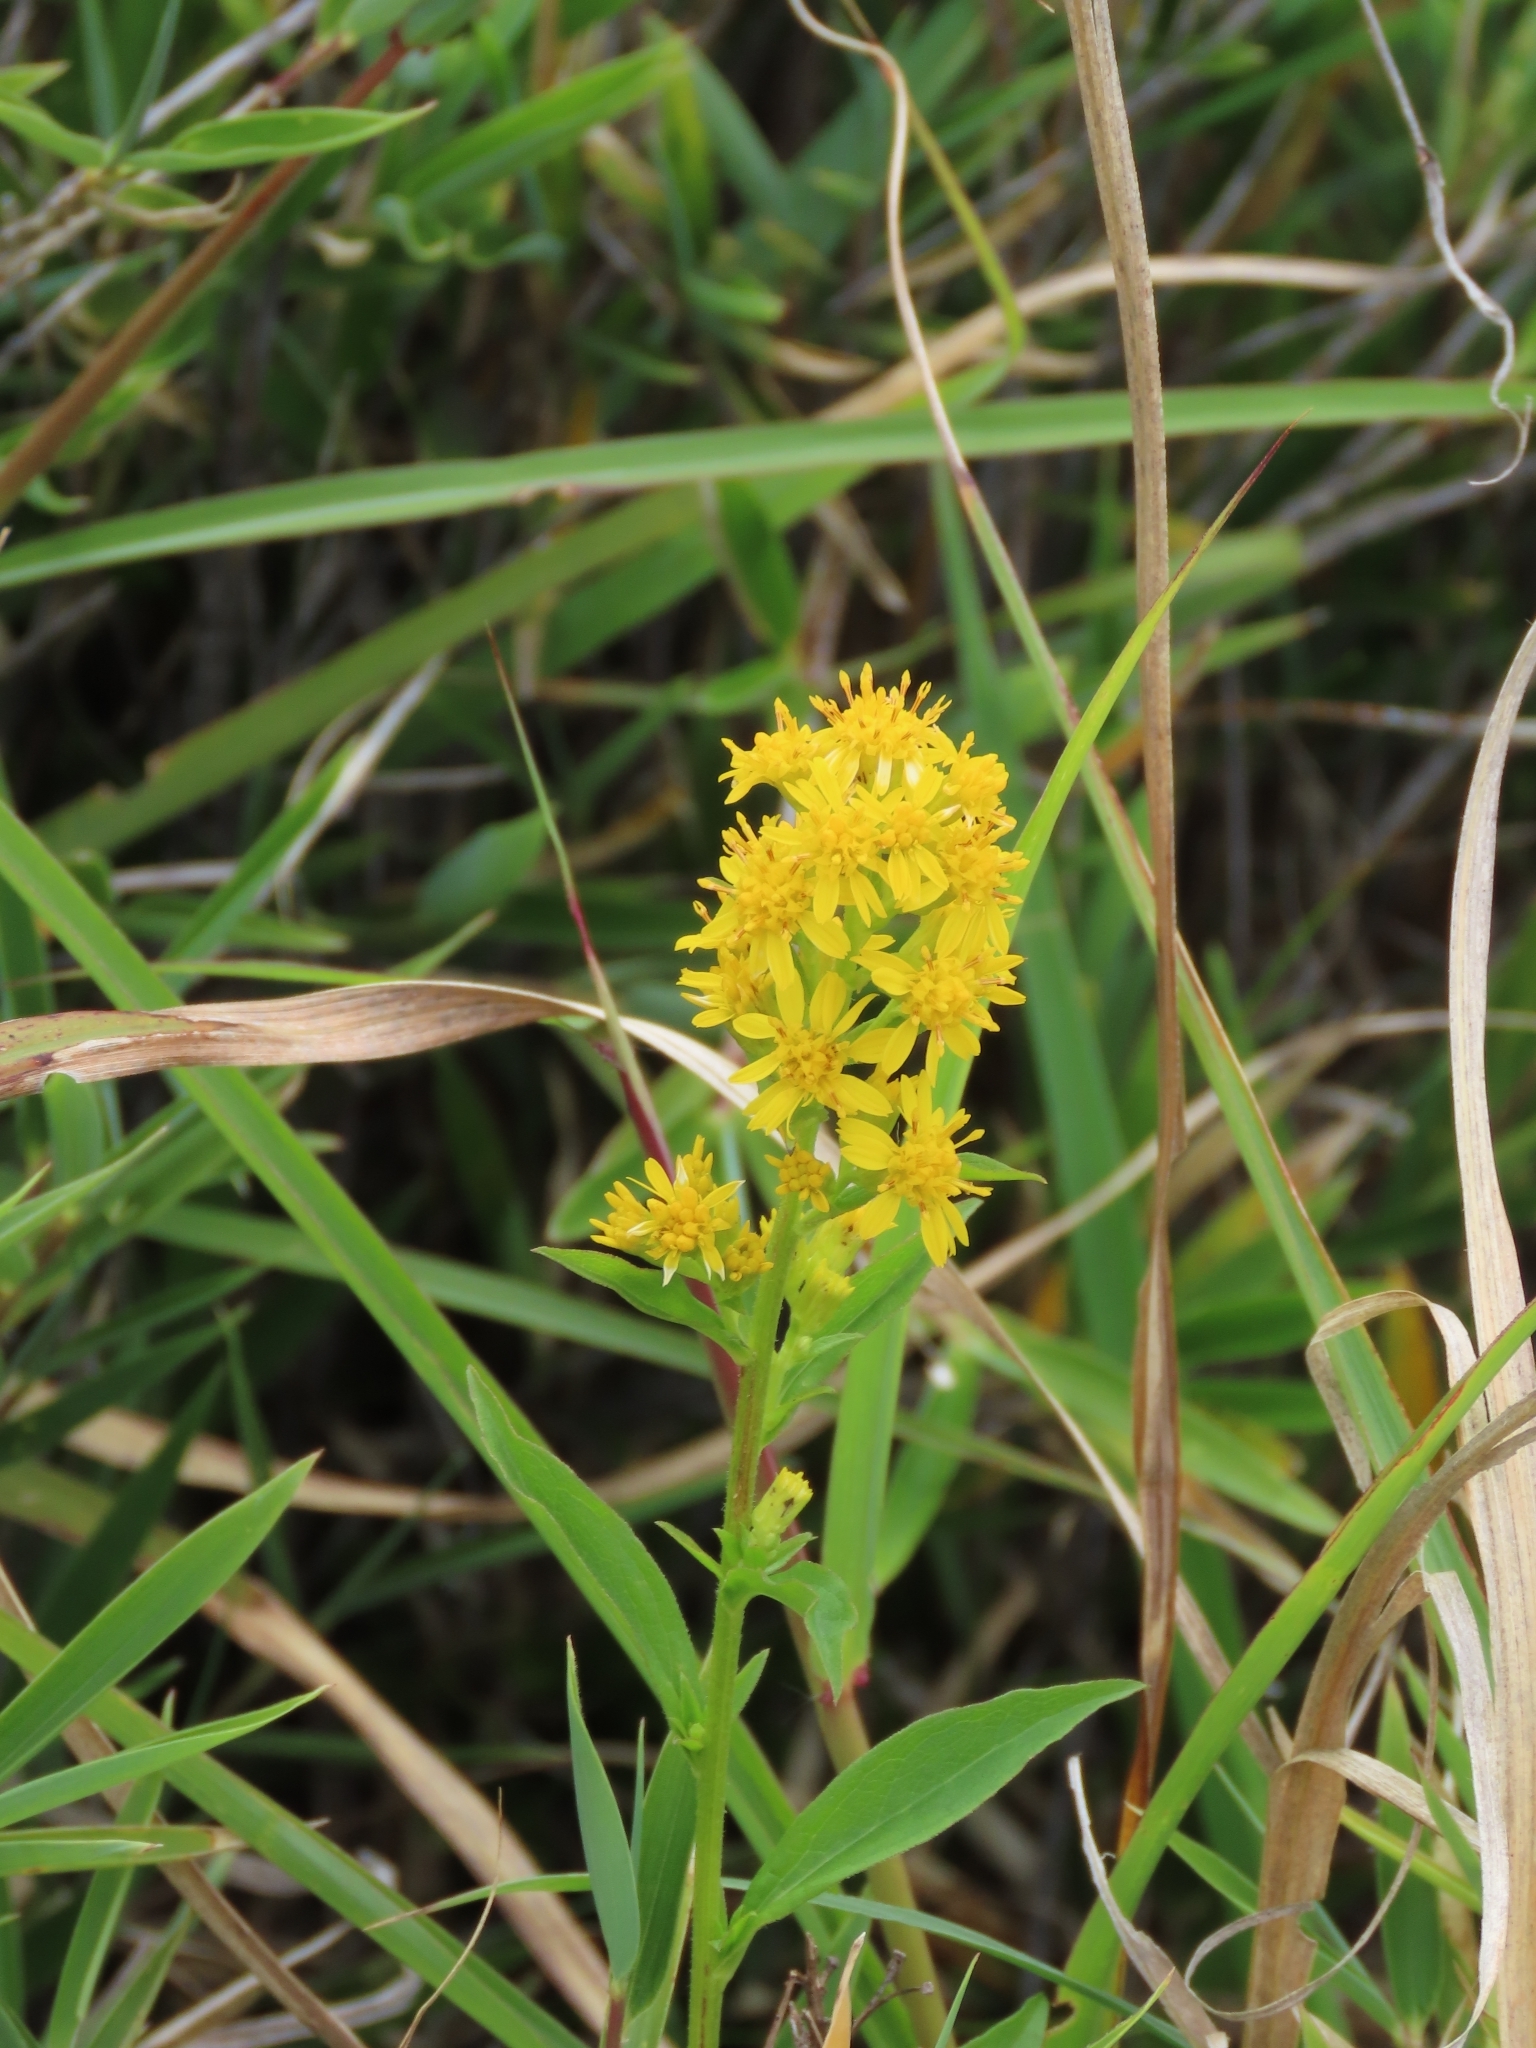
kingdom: Plantae
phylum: Tracheophyta
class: Magnoliopsida
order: Asterales
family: Asteraceae
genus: Solidago
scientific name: Solidago decurrens
